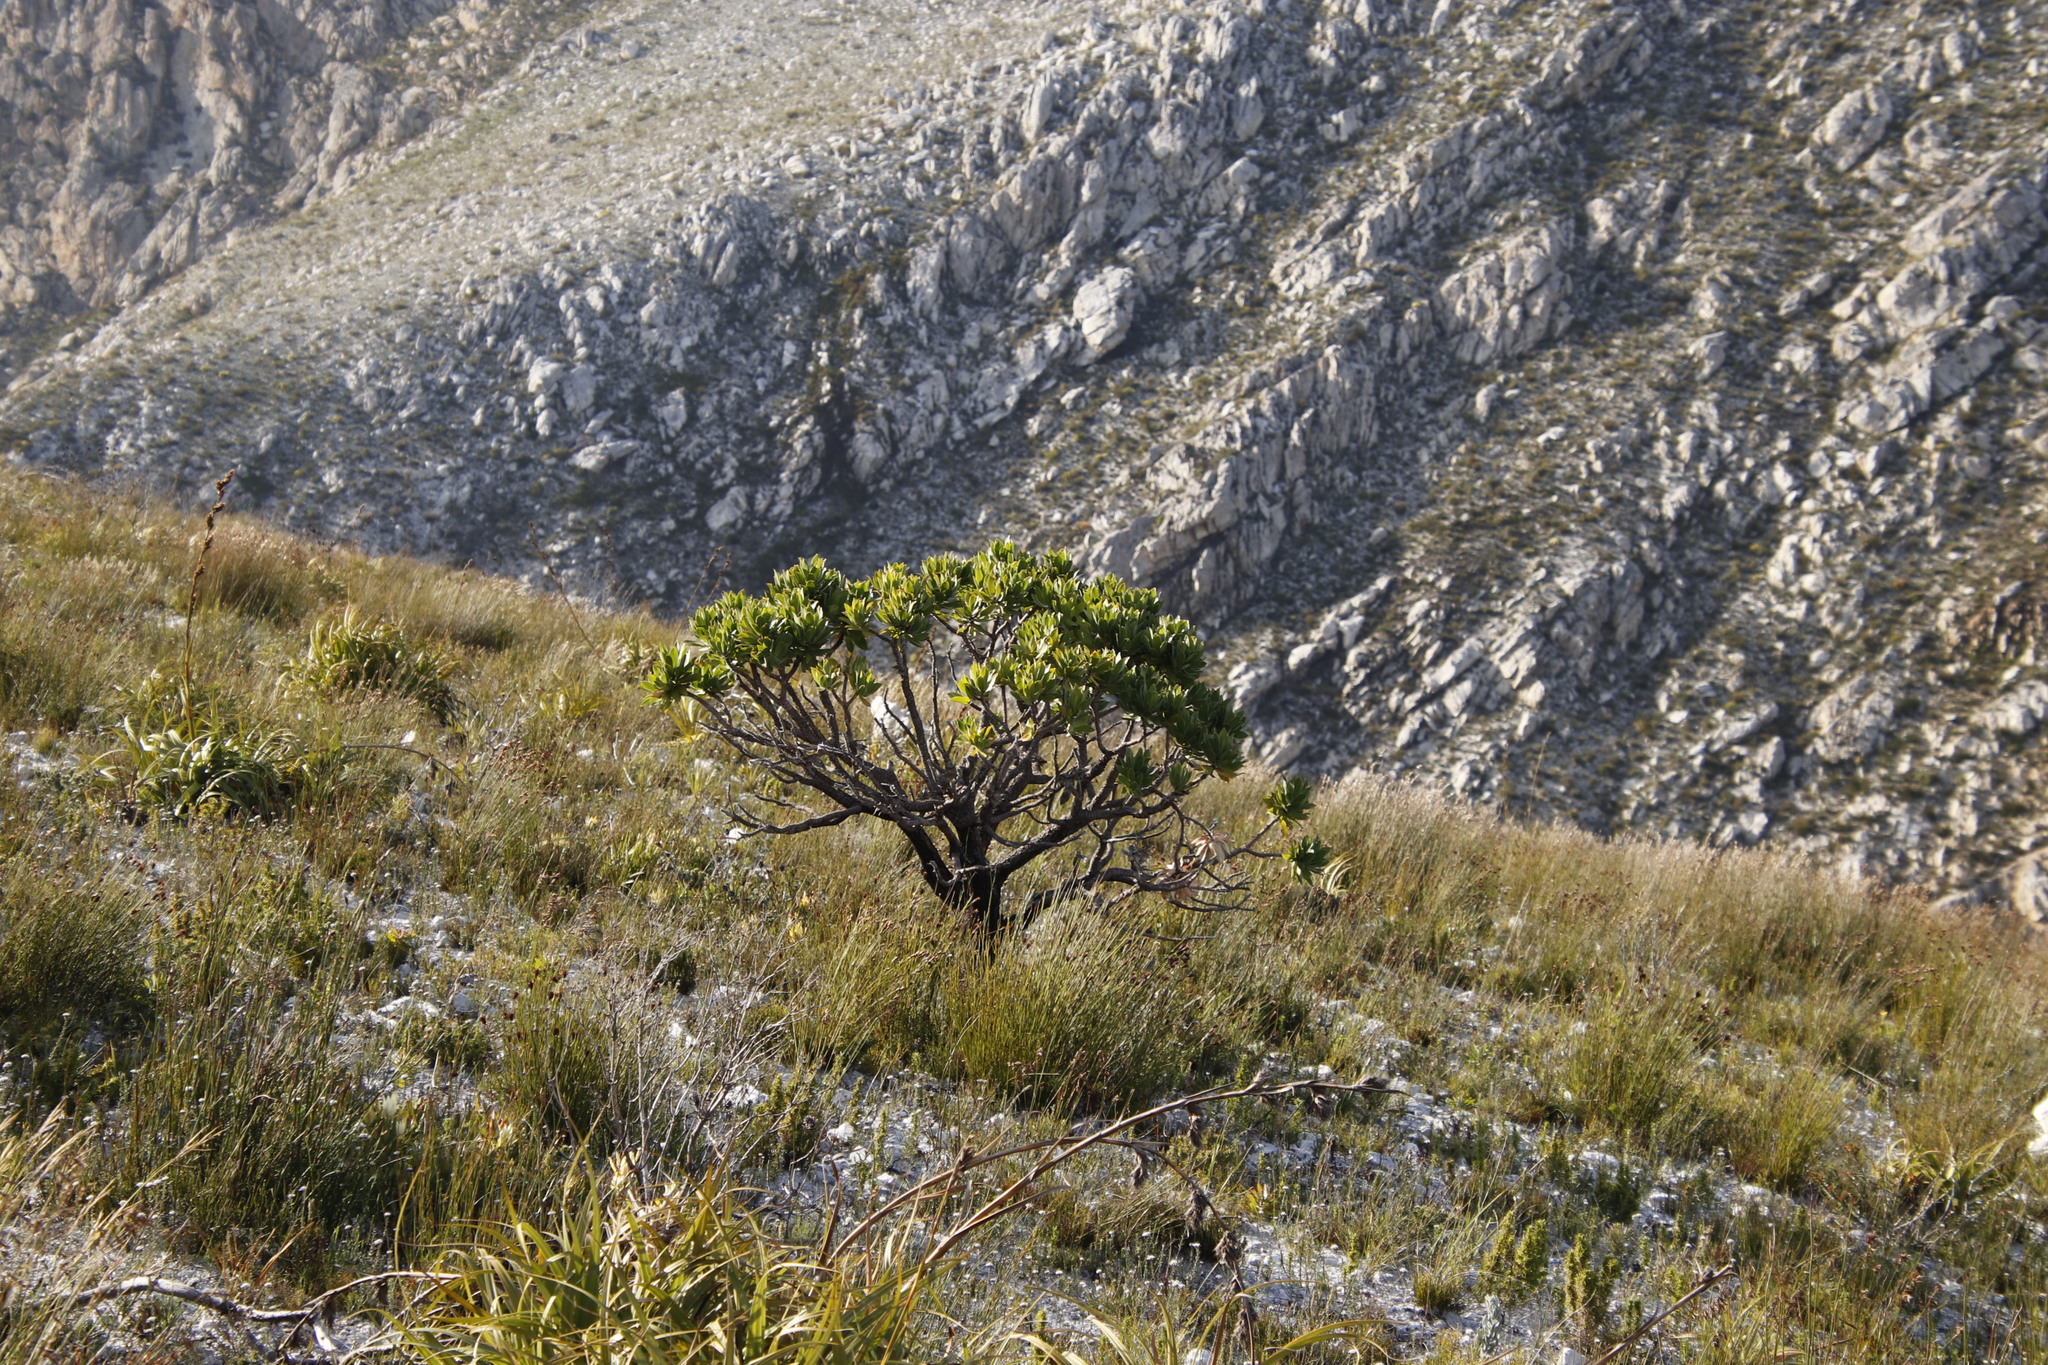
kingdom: Plantae
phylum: Tracheophyta
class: Magnoliopsida
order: Proteales
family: Proteaceae
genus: Leucospermum
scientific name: Leucospermum conocarpodendron
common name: Tree pincushion
